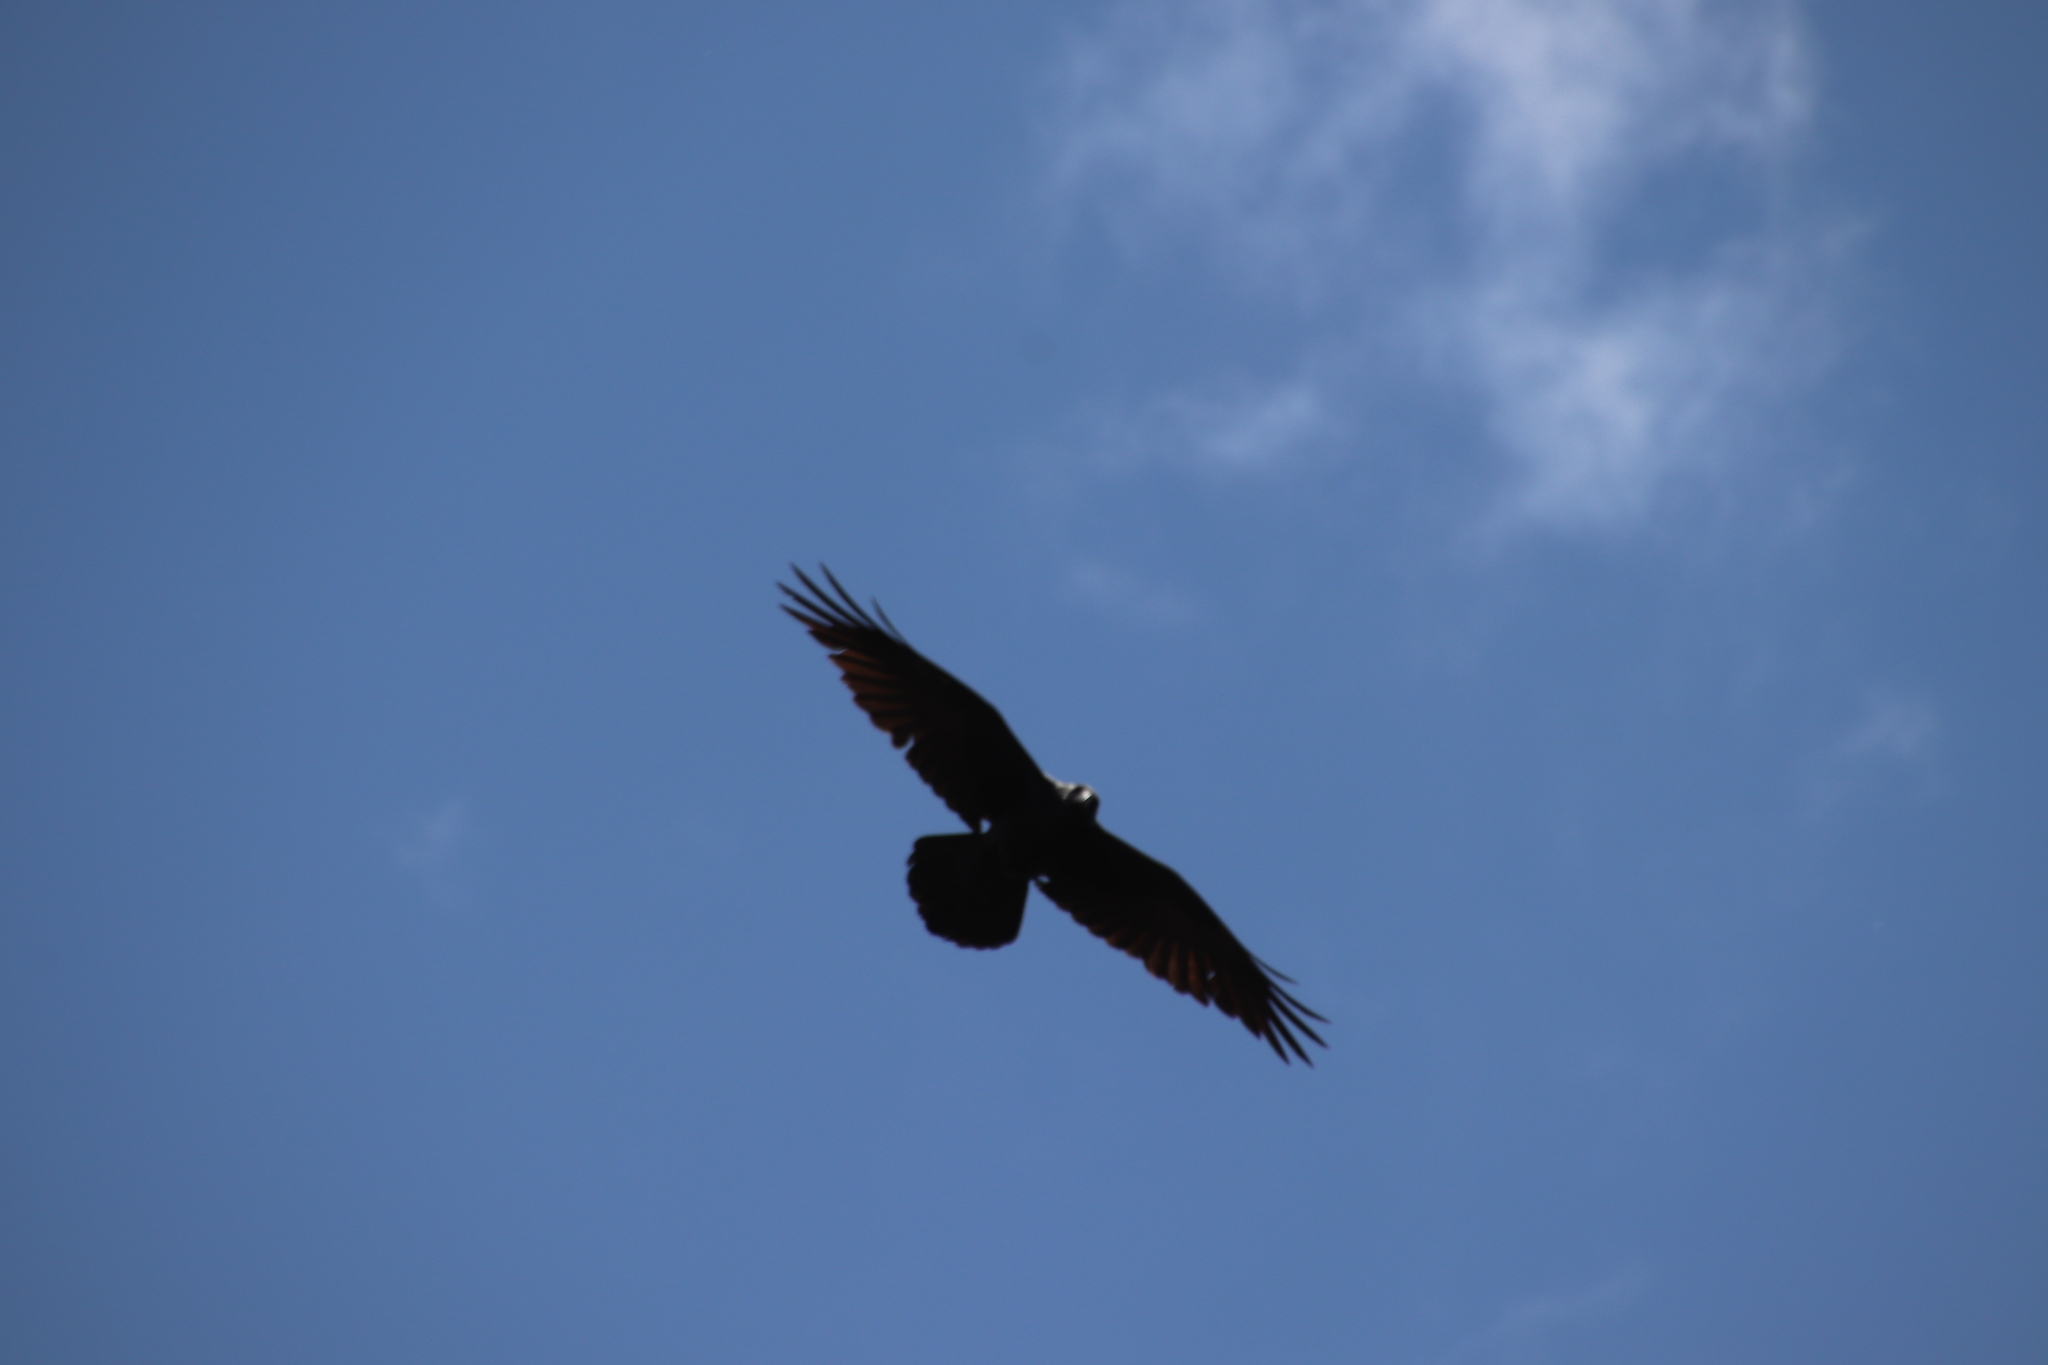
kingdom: Animalia
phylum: Chordata
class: Aves
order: Passeriformes
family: Corvidae
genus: Corvus
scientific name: Corvus corax
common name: Common raven
